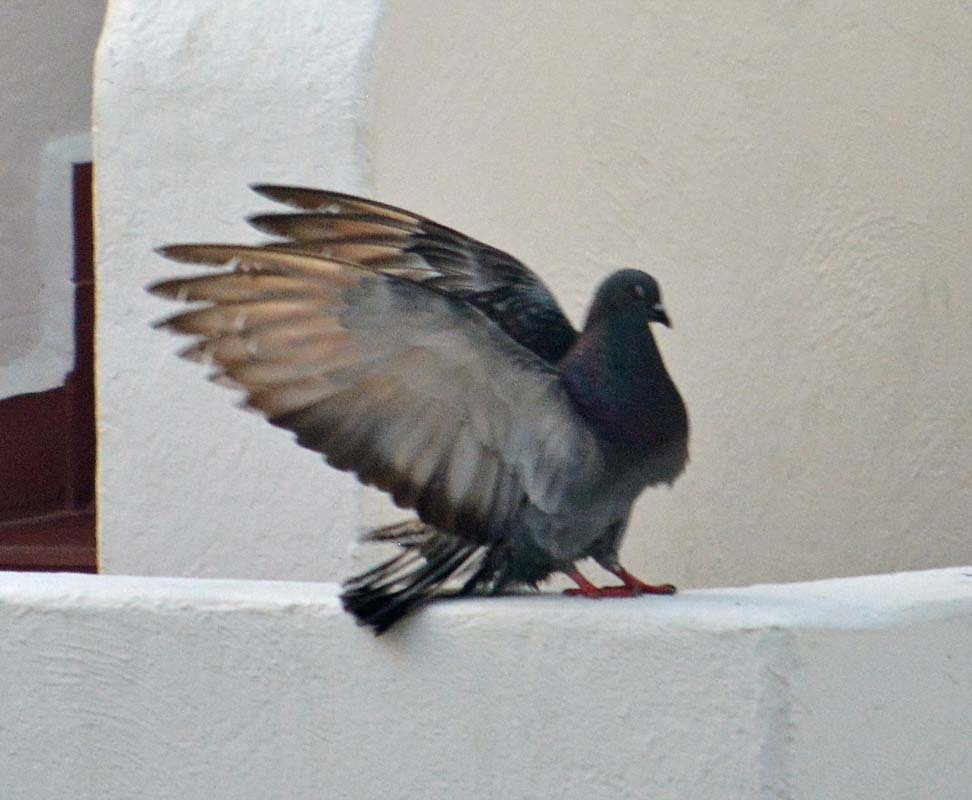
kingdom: Animalia
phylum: Chordata
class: Aves
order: Columbiformes
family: Columbidae
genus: Columba
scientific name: Columba livia
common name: Rock pigeon
